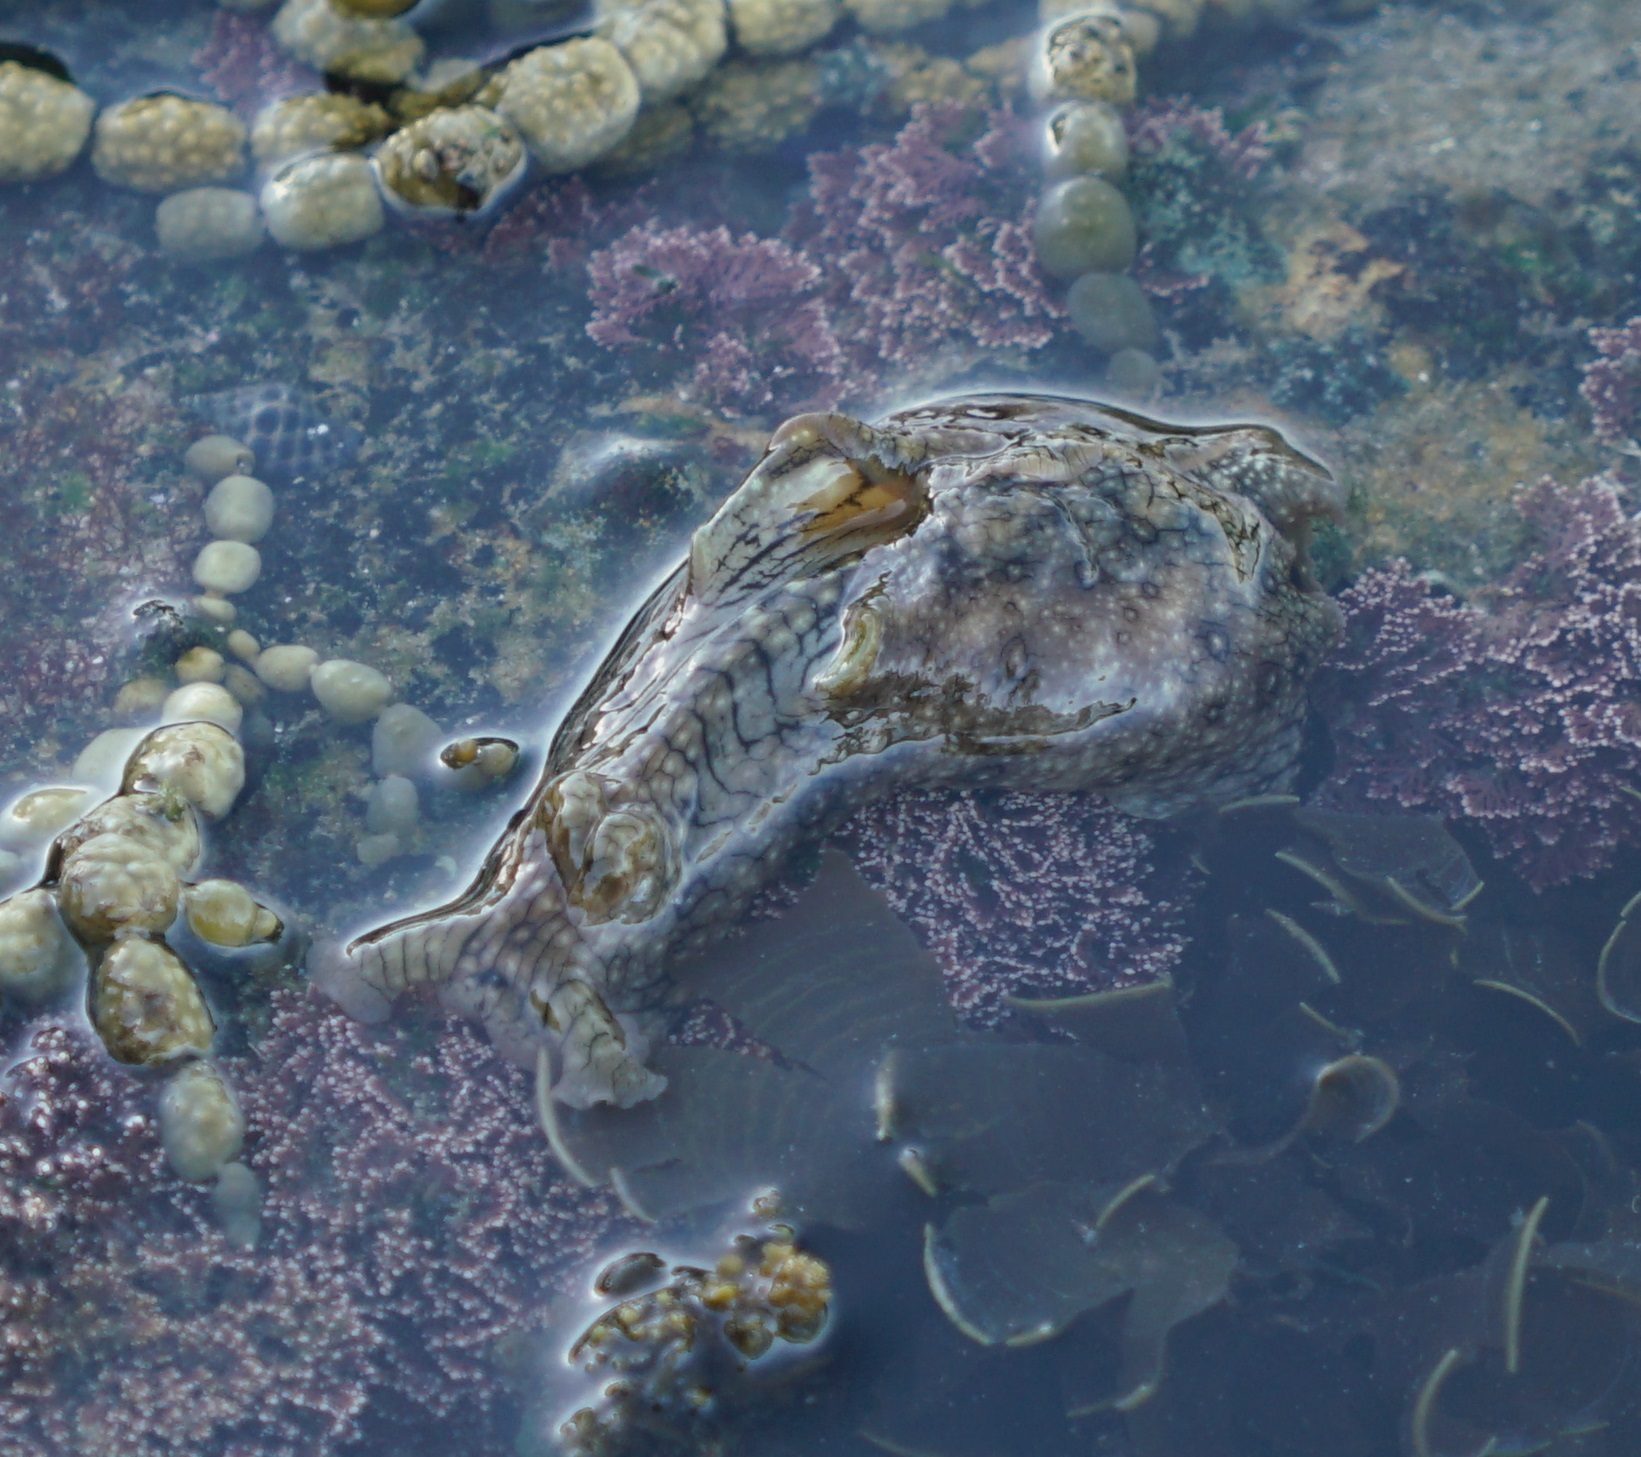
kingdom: Animalia
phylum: Mollusca
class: Gastropoda
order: Aplysiida
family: Aplysiidae
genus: Aplysia
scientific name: Aplysia argus
